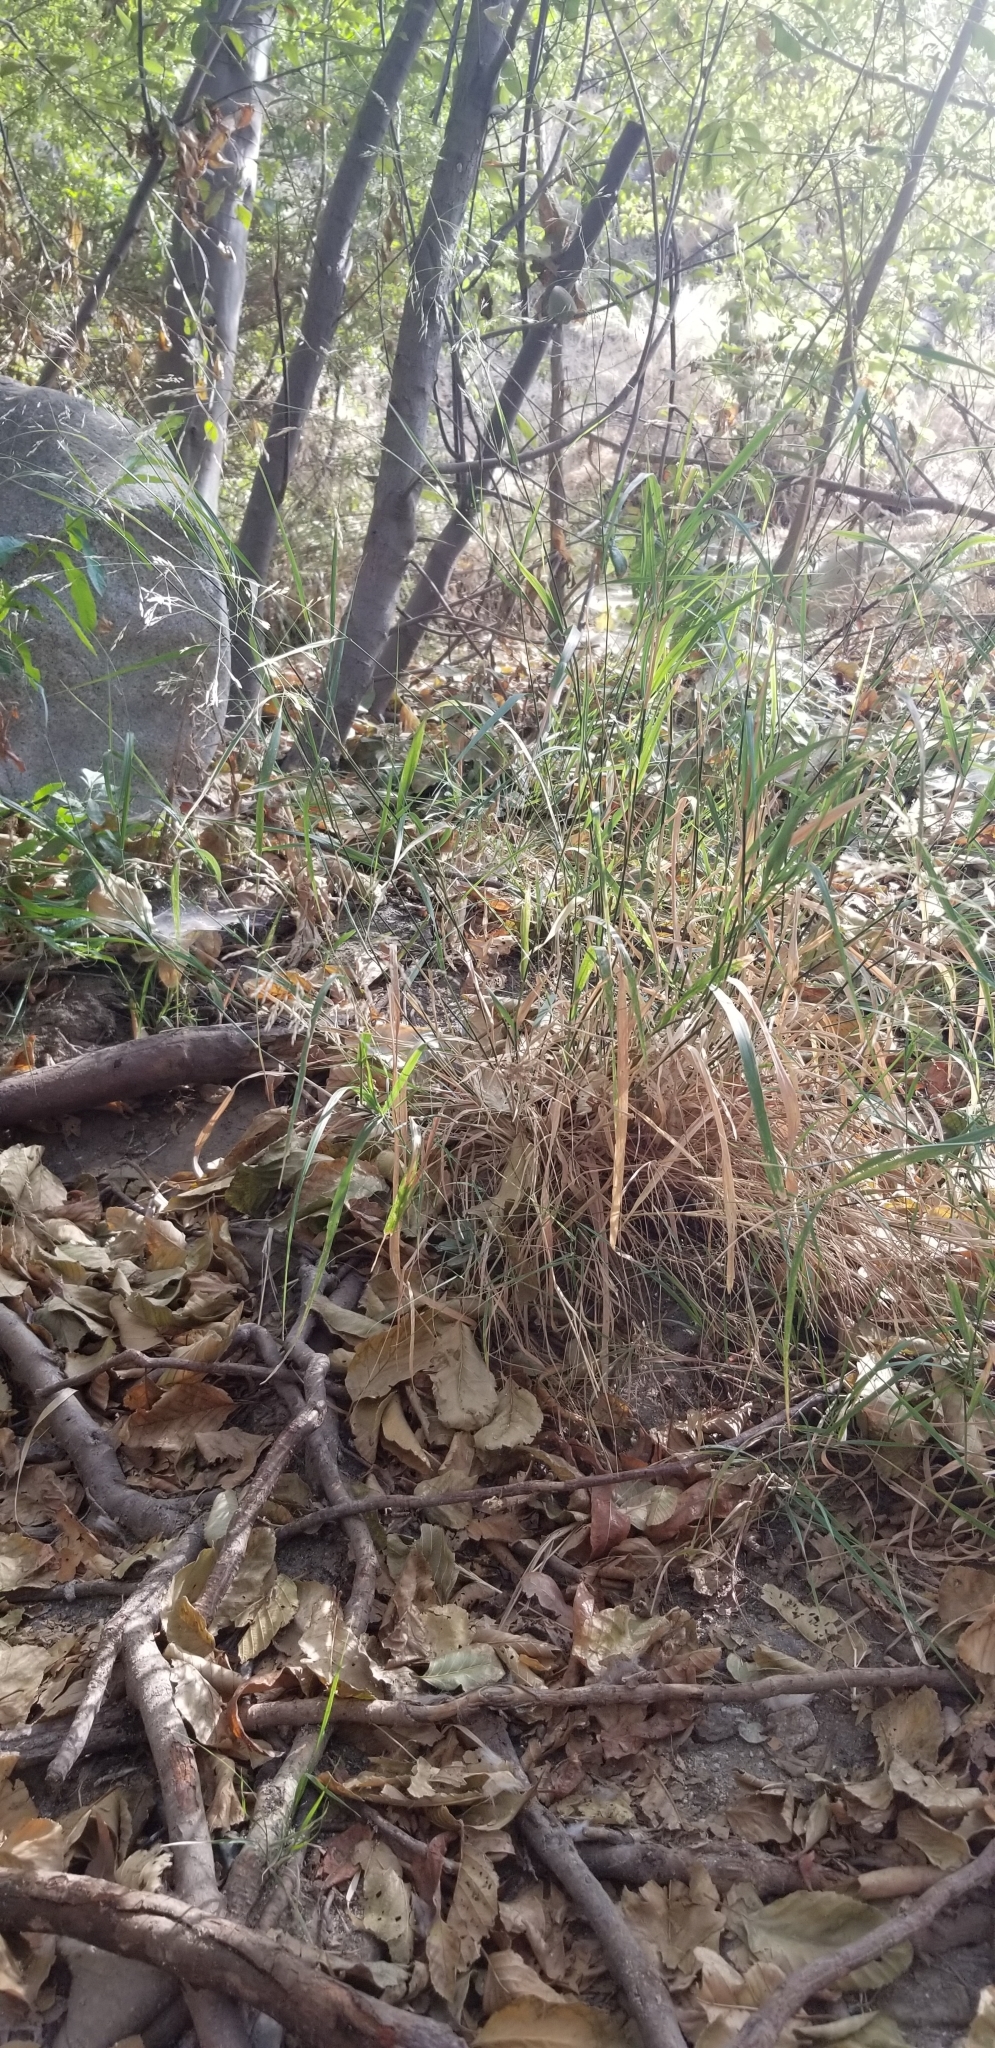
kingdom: Plantae
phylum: Tracheophyta
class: Liliopsida
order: Poales
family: Poaceae
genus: Oloptum
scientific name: Oloptum miliaceum
